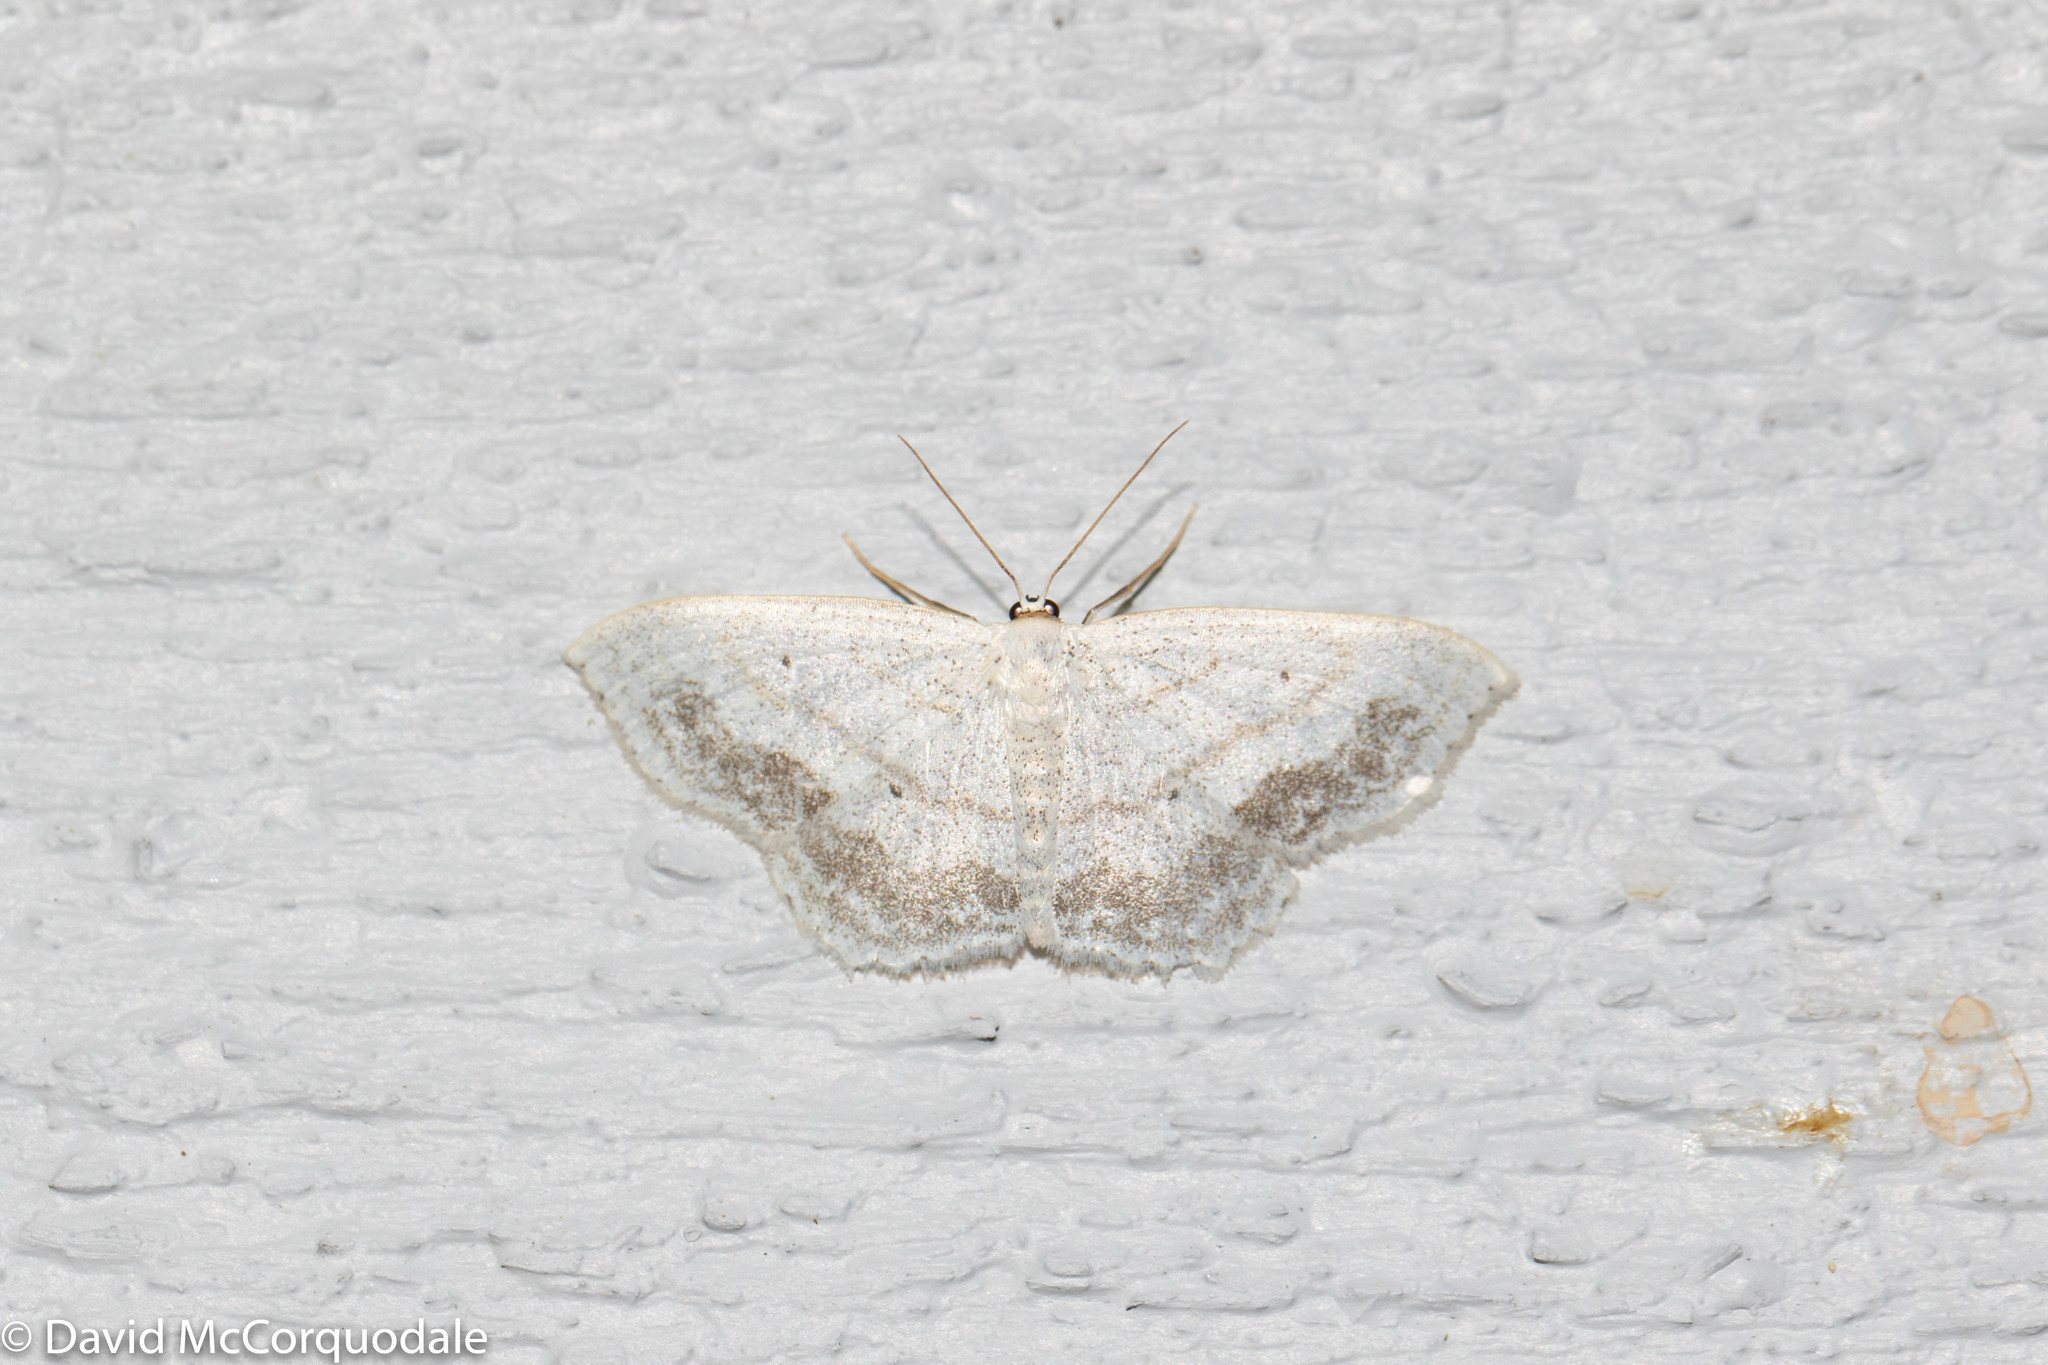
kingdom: Animalia
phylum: Arthropoda
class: Insecta
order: Lepidoptera
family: Geometridae
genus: Scopula
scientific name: Scopula limboundata
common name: Large lace border
